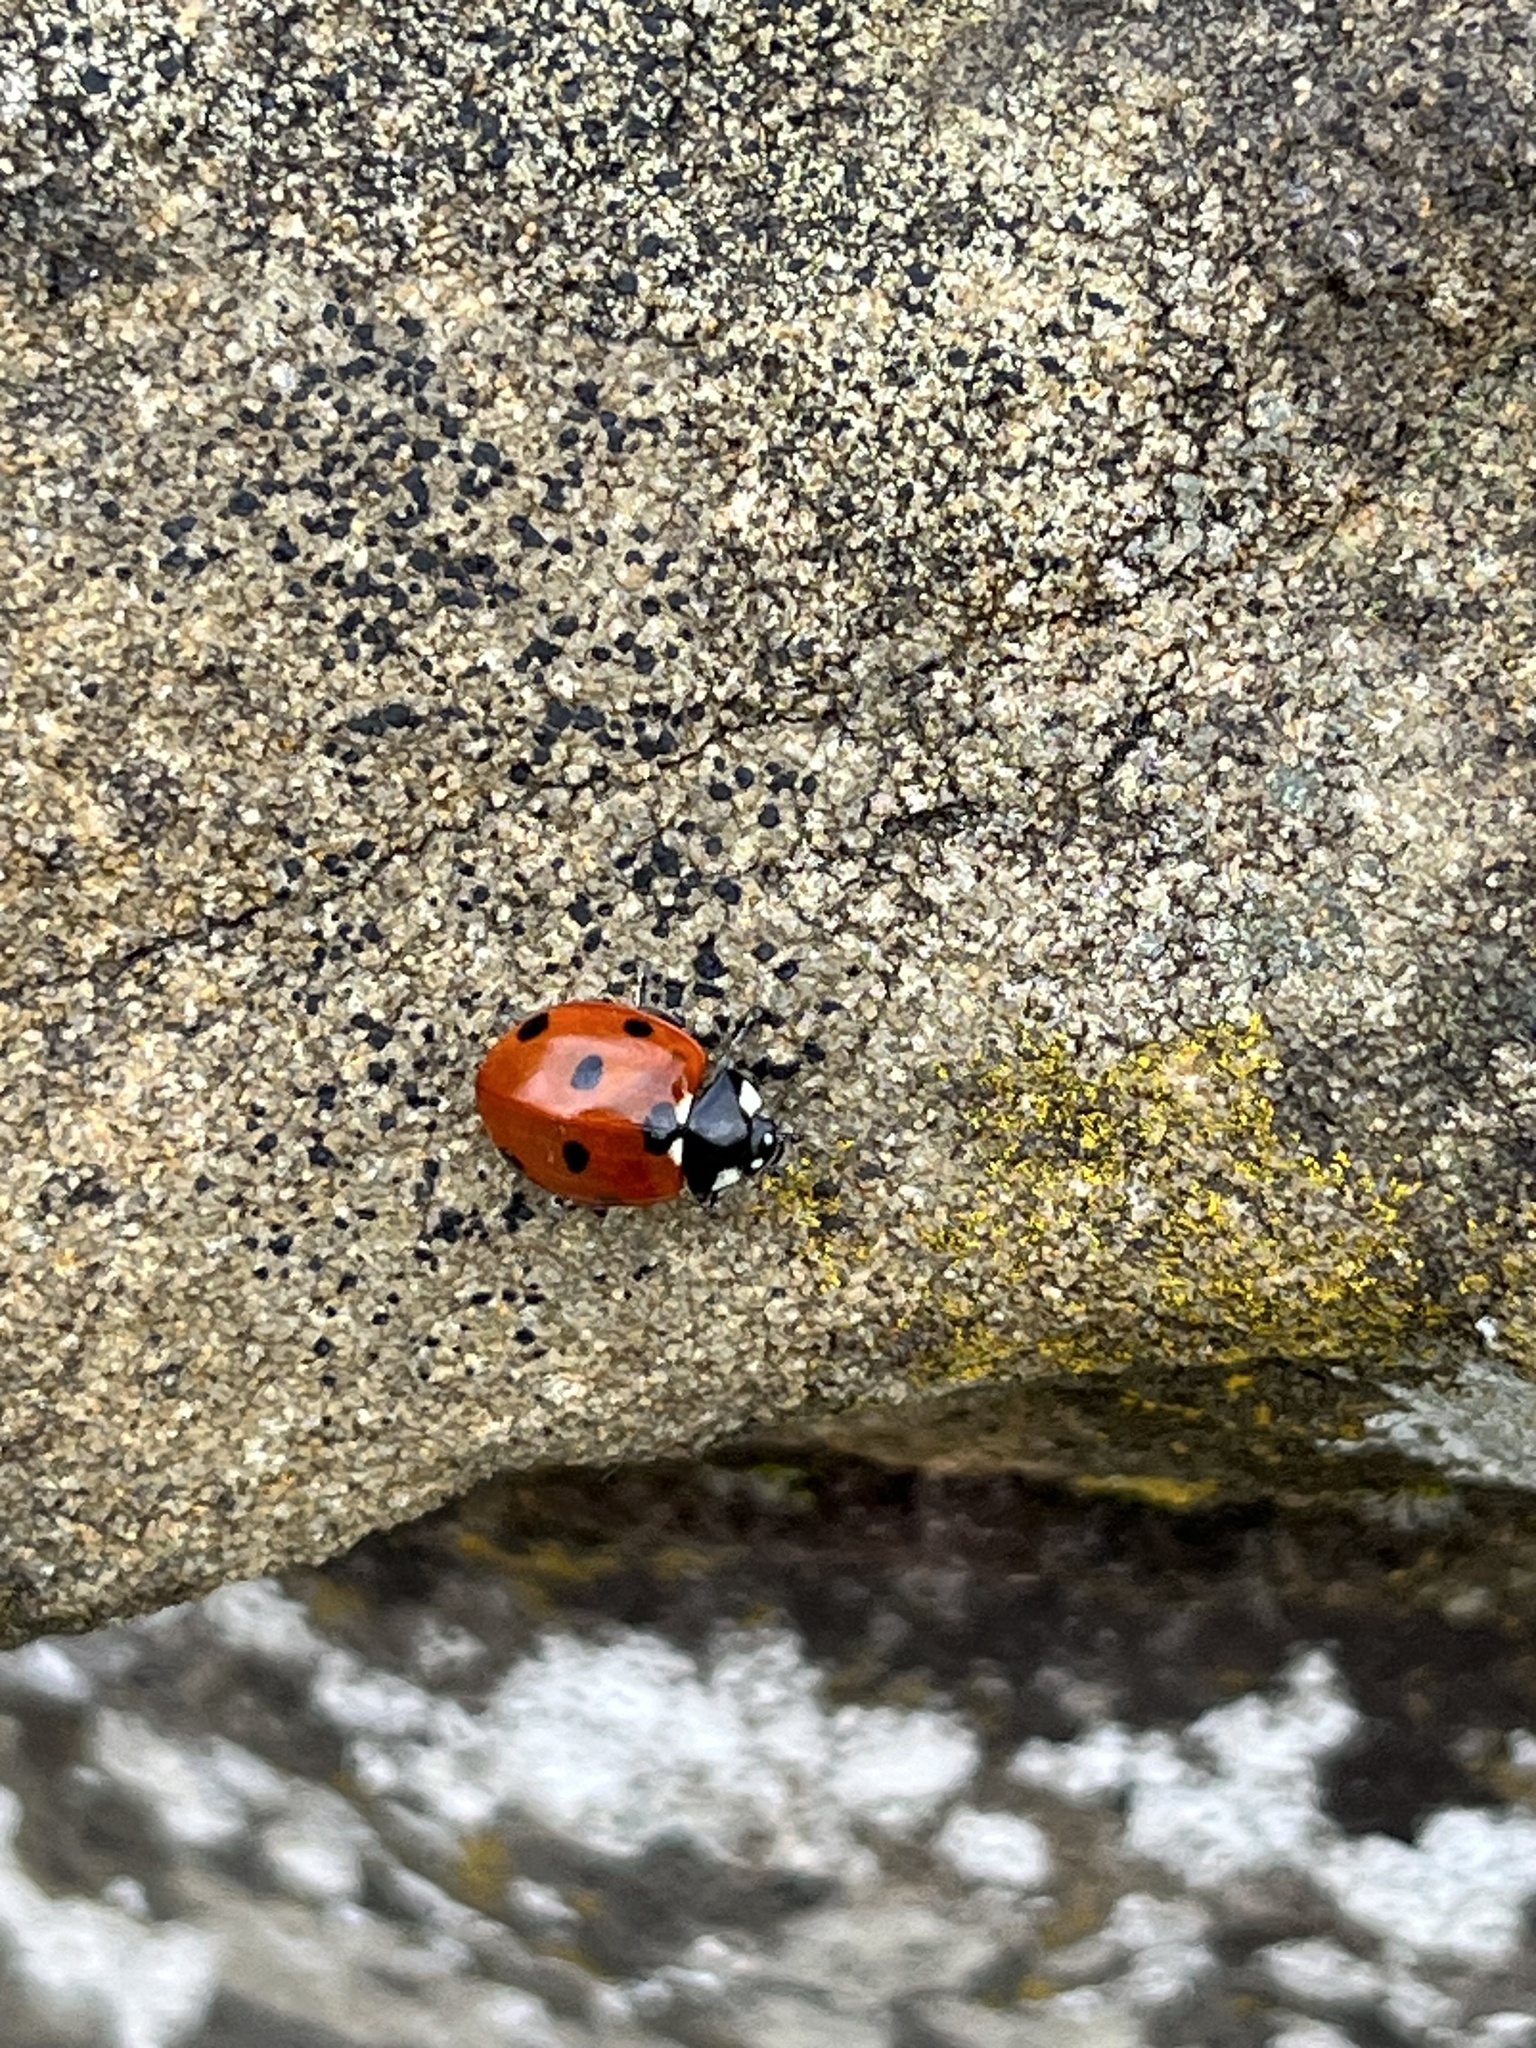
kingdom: Animalia
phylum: Arthropoda
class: Insecta
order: Coleoptera
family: Coccinellidae
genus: Coccinella
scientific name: Coccinella septempunctata
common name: Sevenspotted lady beetle
